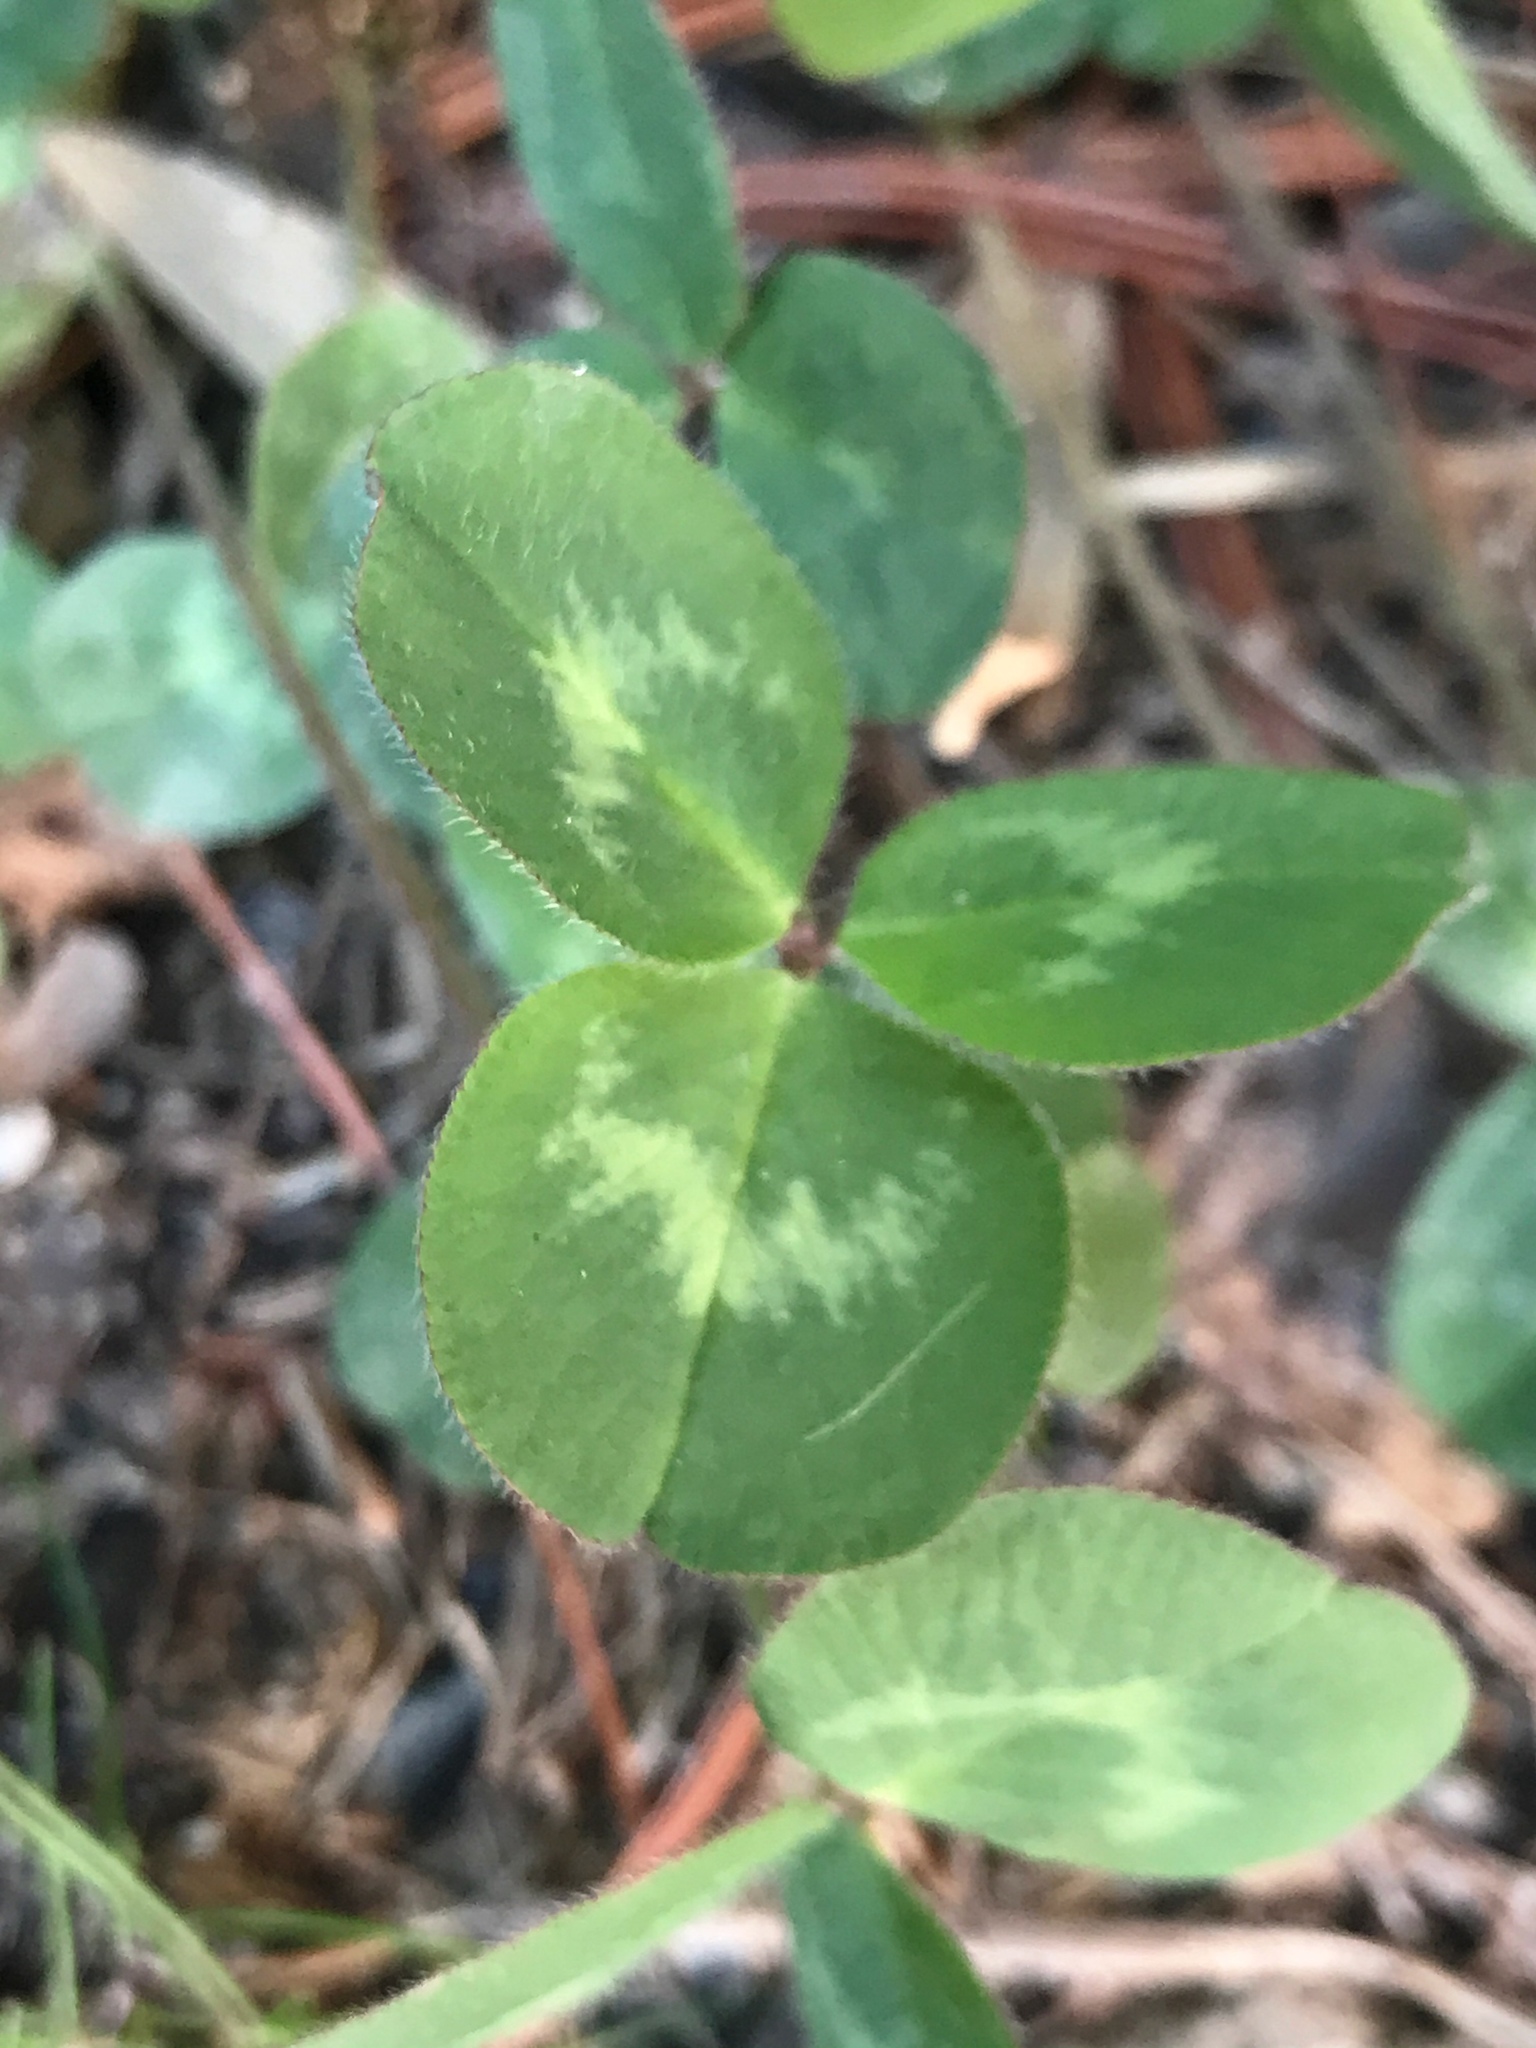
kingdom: Plantae
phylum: Tracheophyta
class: Magnoliopsida
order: Fabales
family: Fabaceae
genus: Trifolium
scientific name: Trifolium pratense
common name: Red clover
